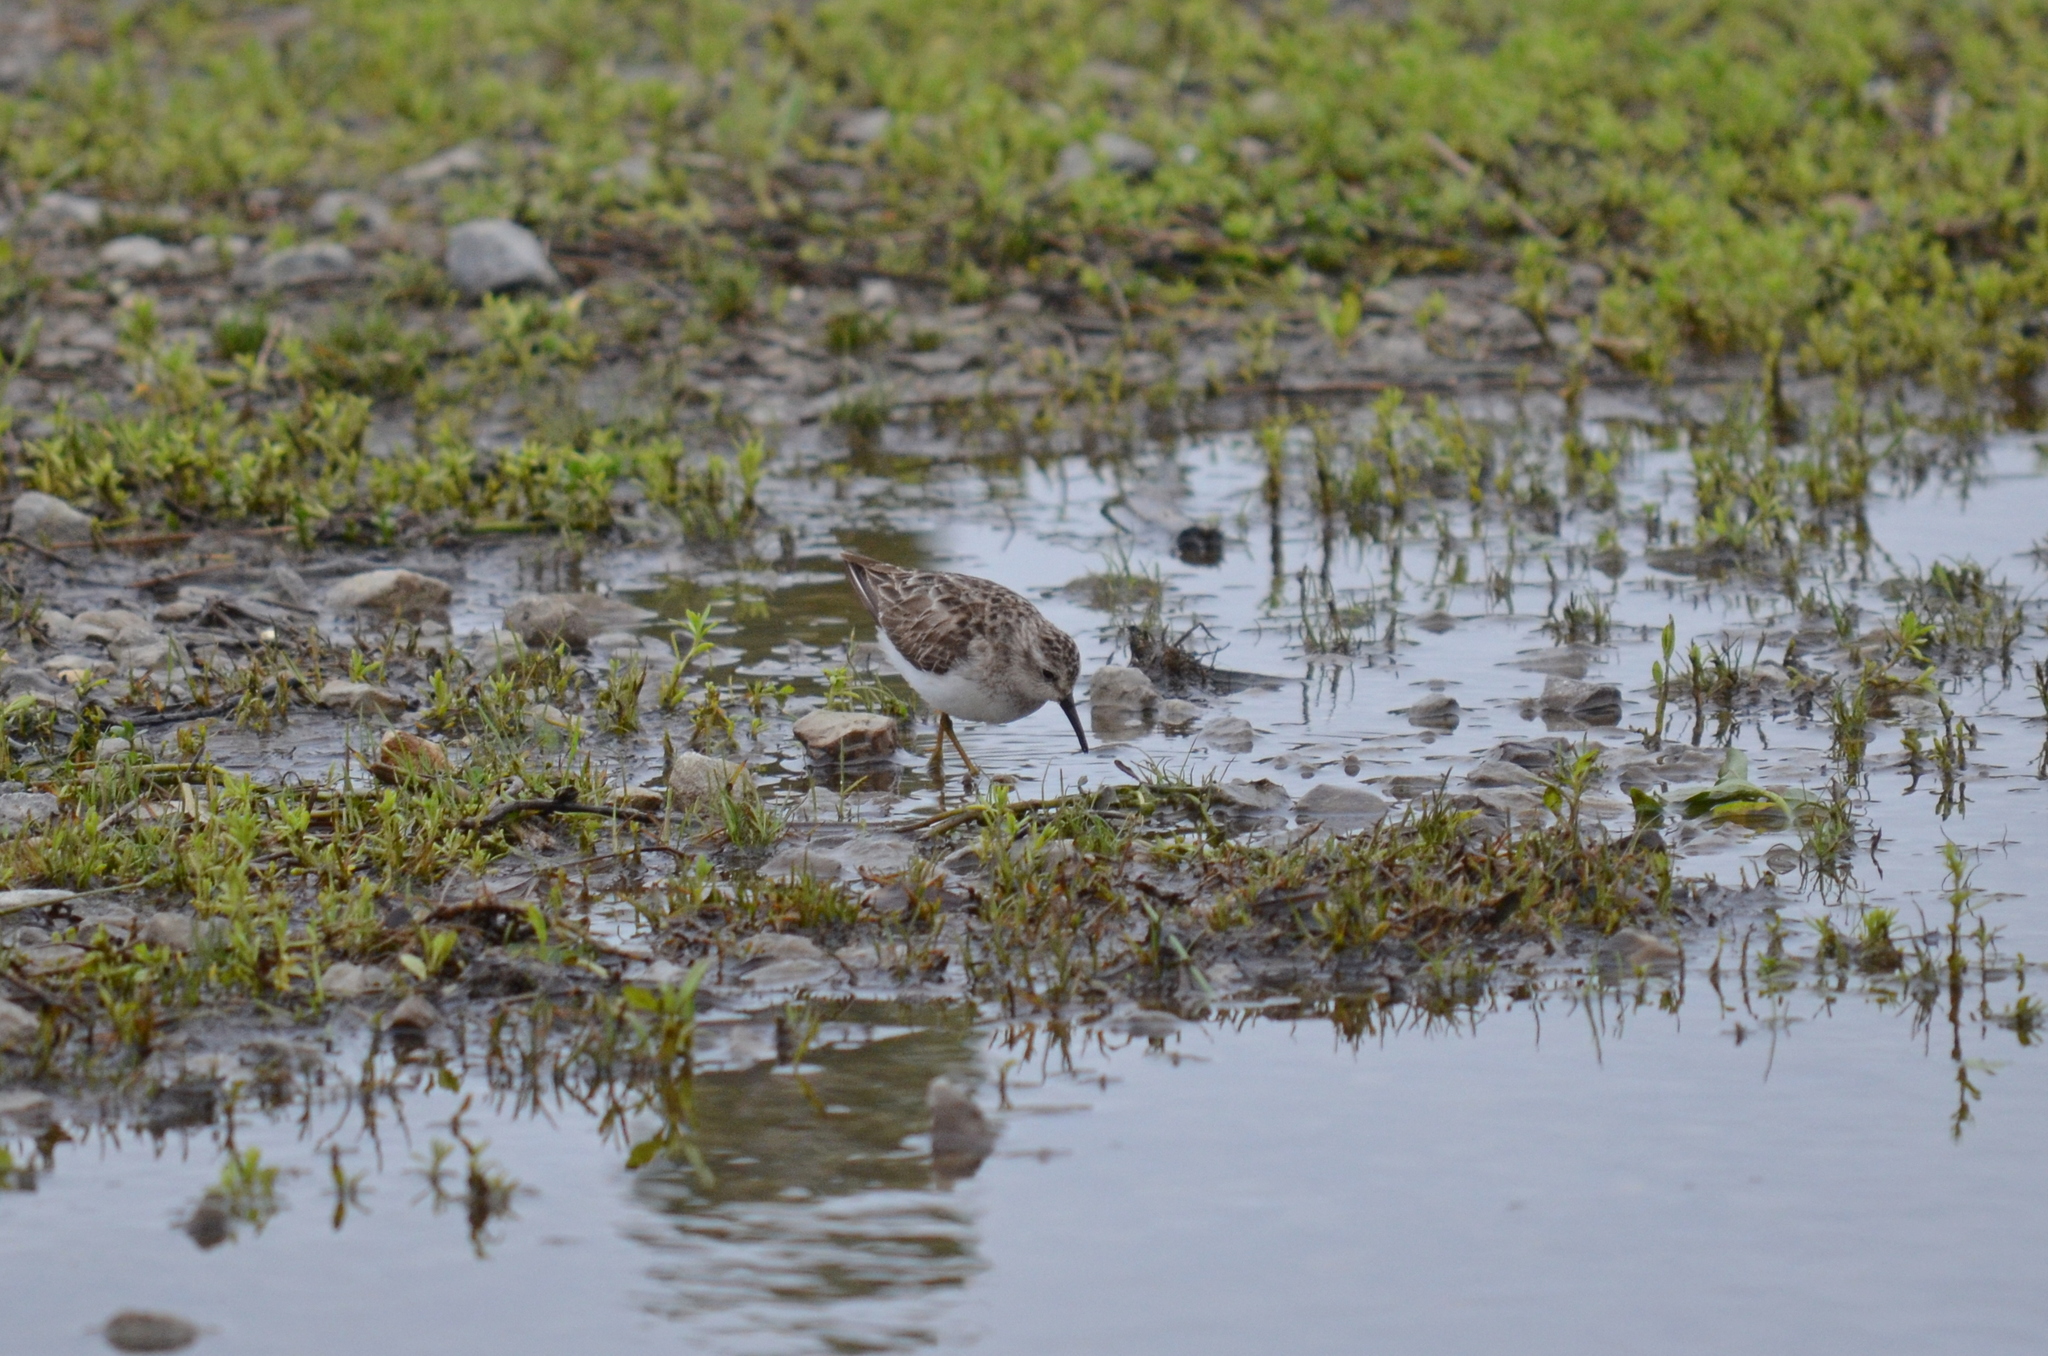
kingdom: Animalia
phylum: Chordata
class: Aves
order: Charadriiformes
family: Scolopacidae
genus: Calidris
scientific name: Calidris minutilla
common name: Least sandpiper
